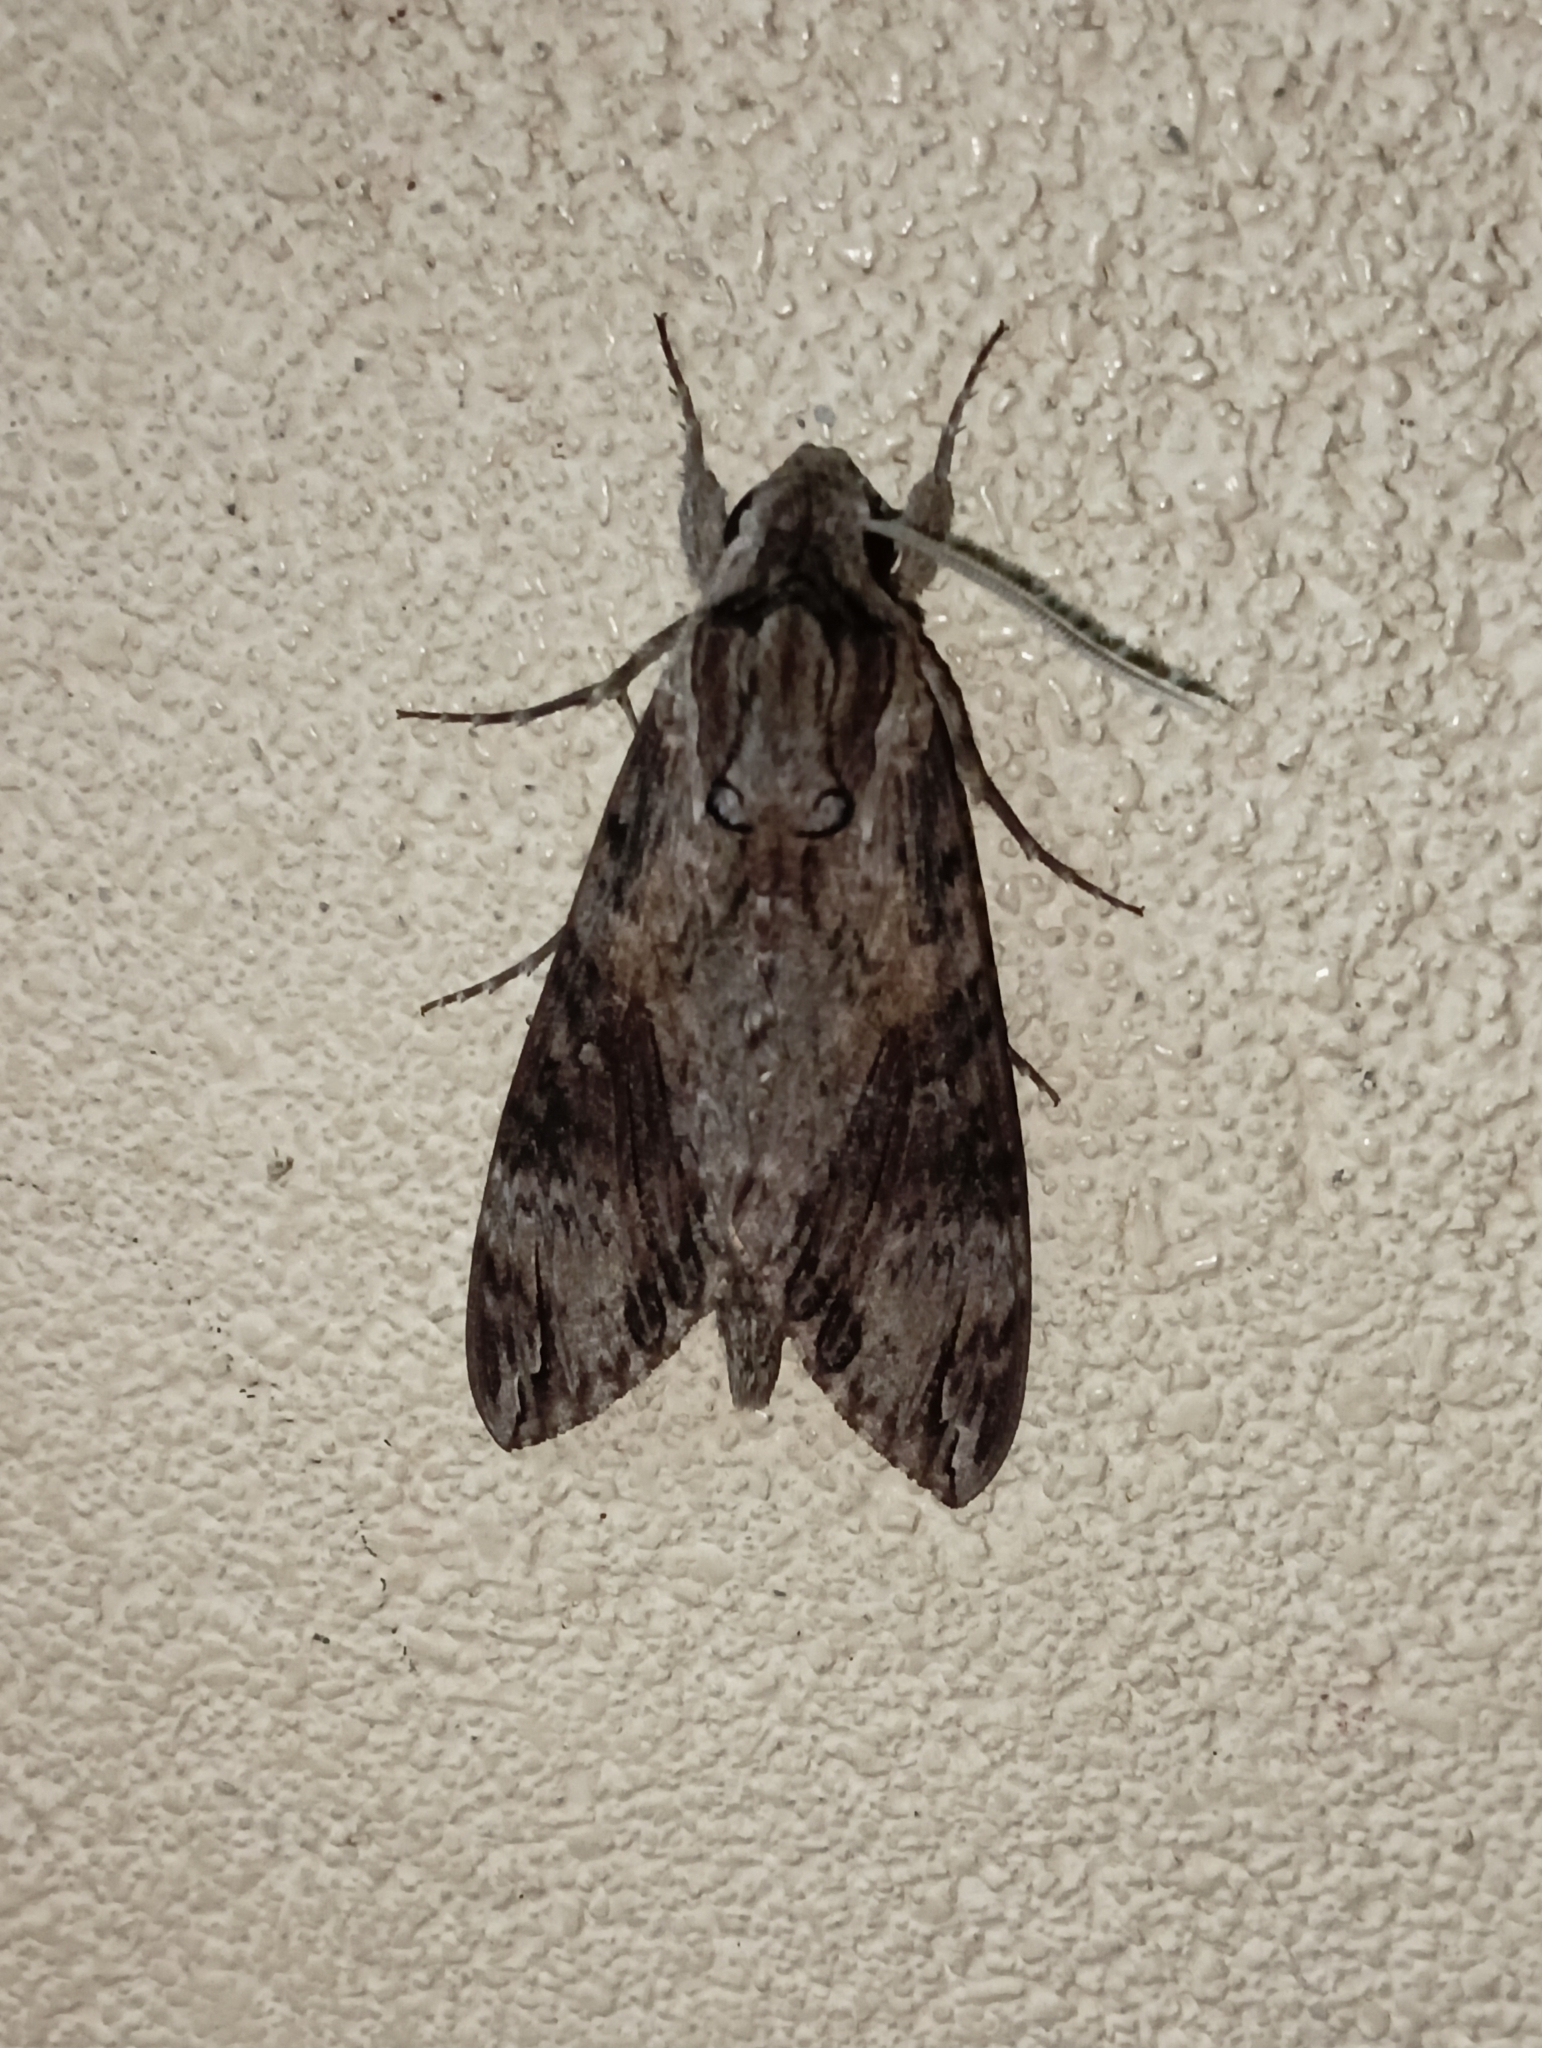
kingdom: Animalia
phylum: Arthropoda
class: Insecta
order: Lepidoptera
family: Sphingidae
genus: Agrius
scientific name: Agrius convolvuli
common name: Convolvulus hawkmoth
